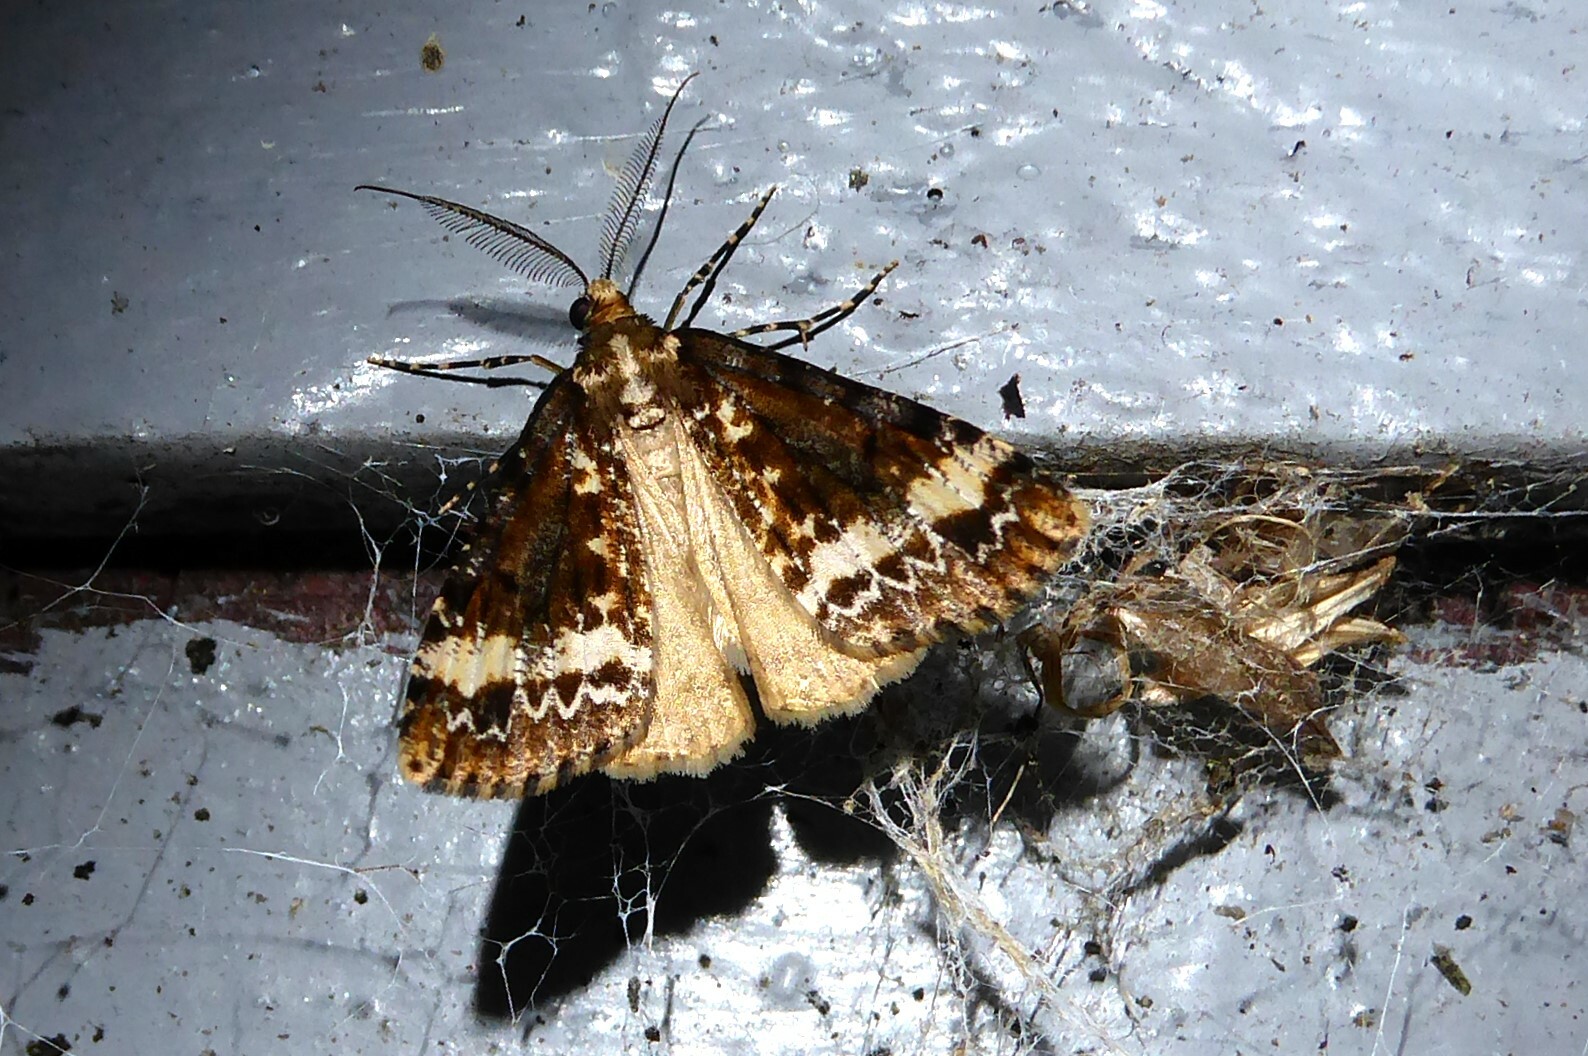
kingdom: Animalia
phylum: Arthropoda
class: Insecta
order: Lepidoptera
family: Geometridae
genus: Pseudocoremia
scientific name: Pseudocoremia leucelaea
